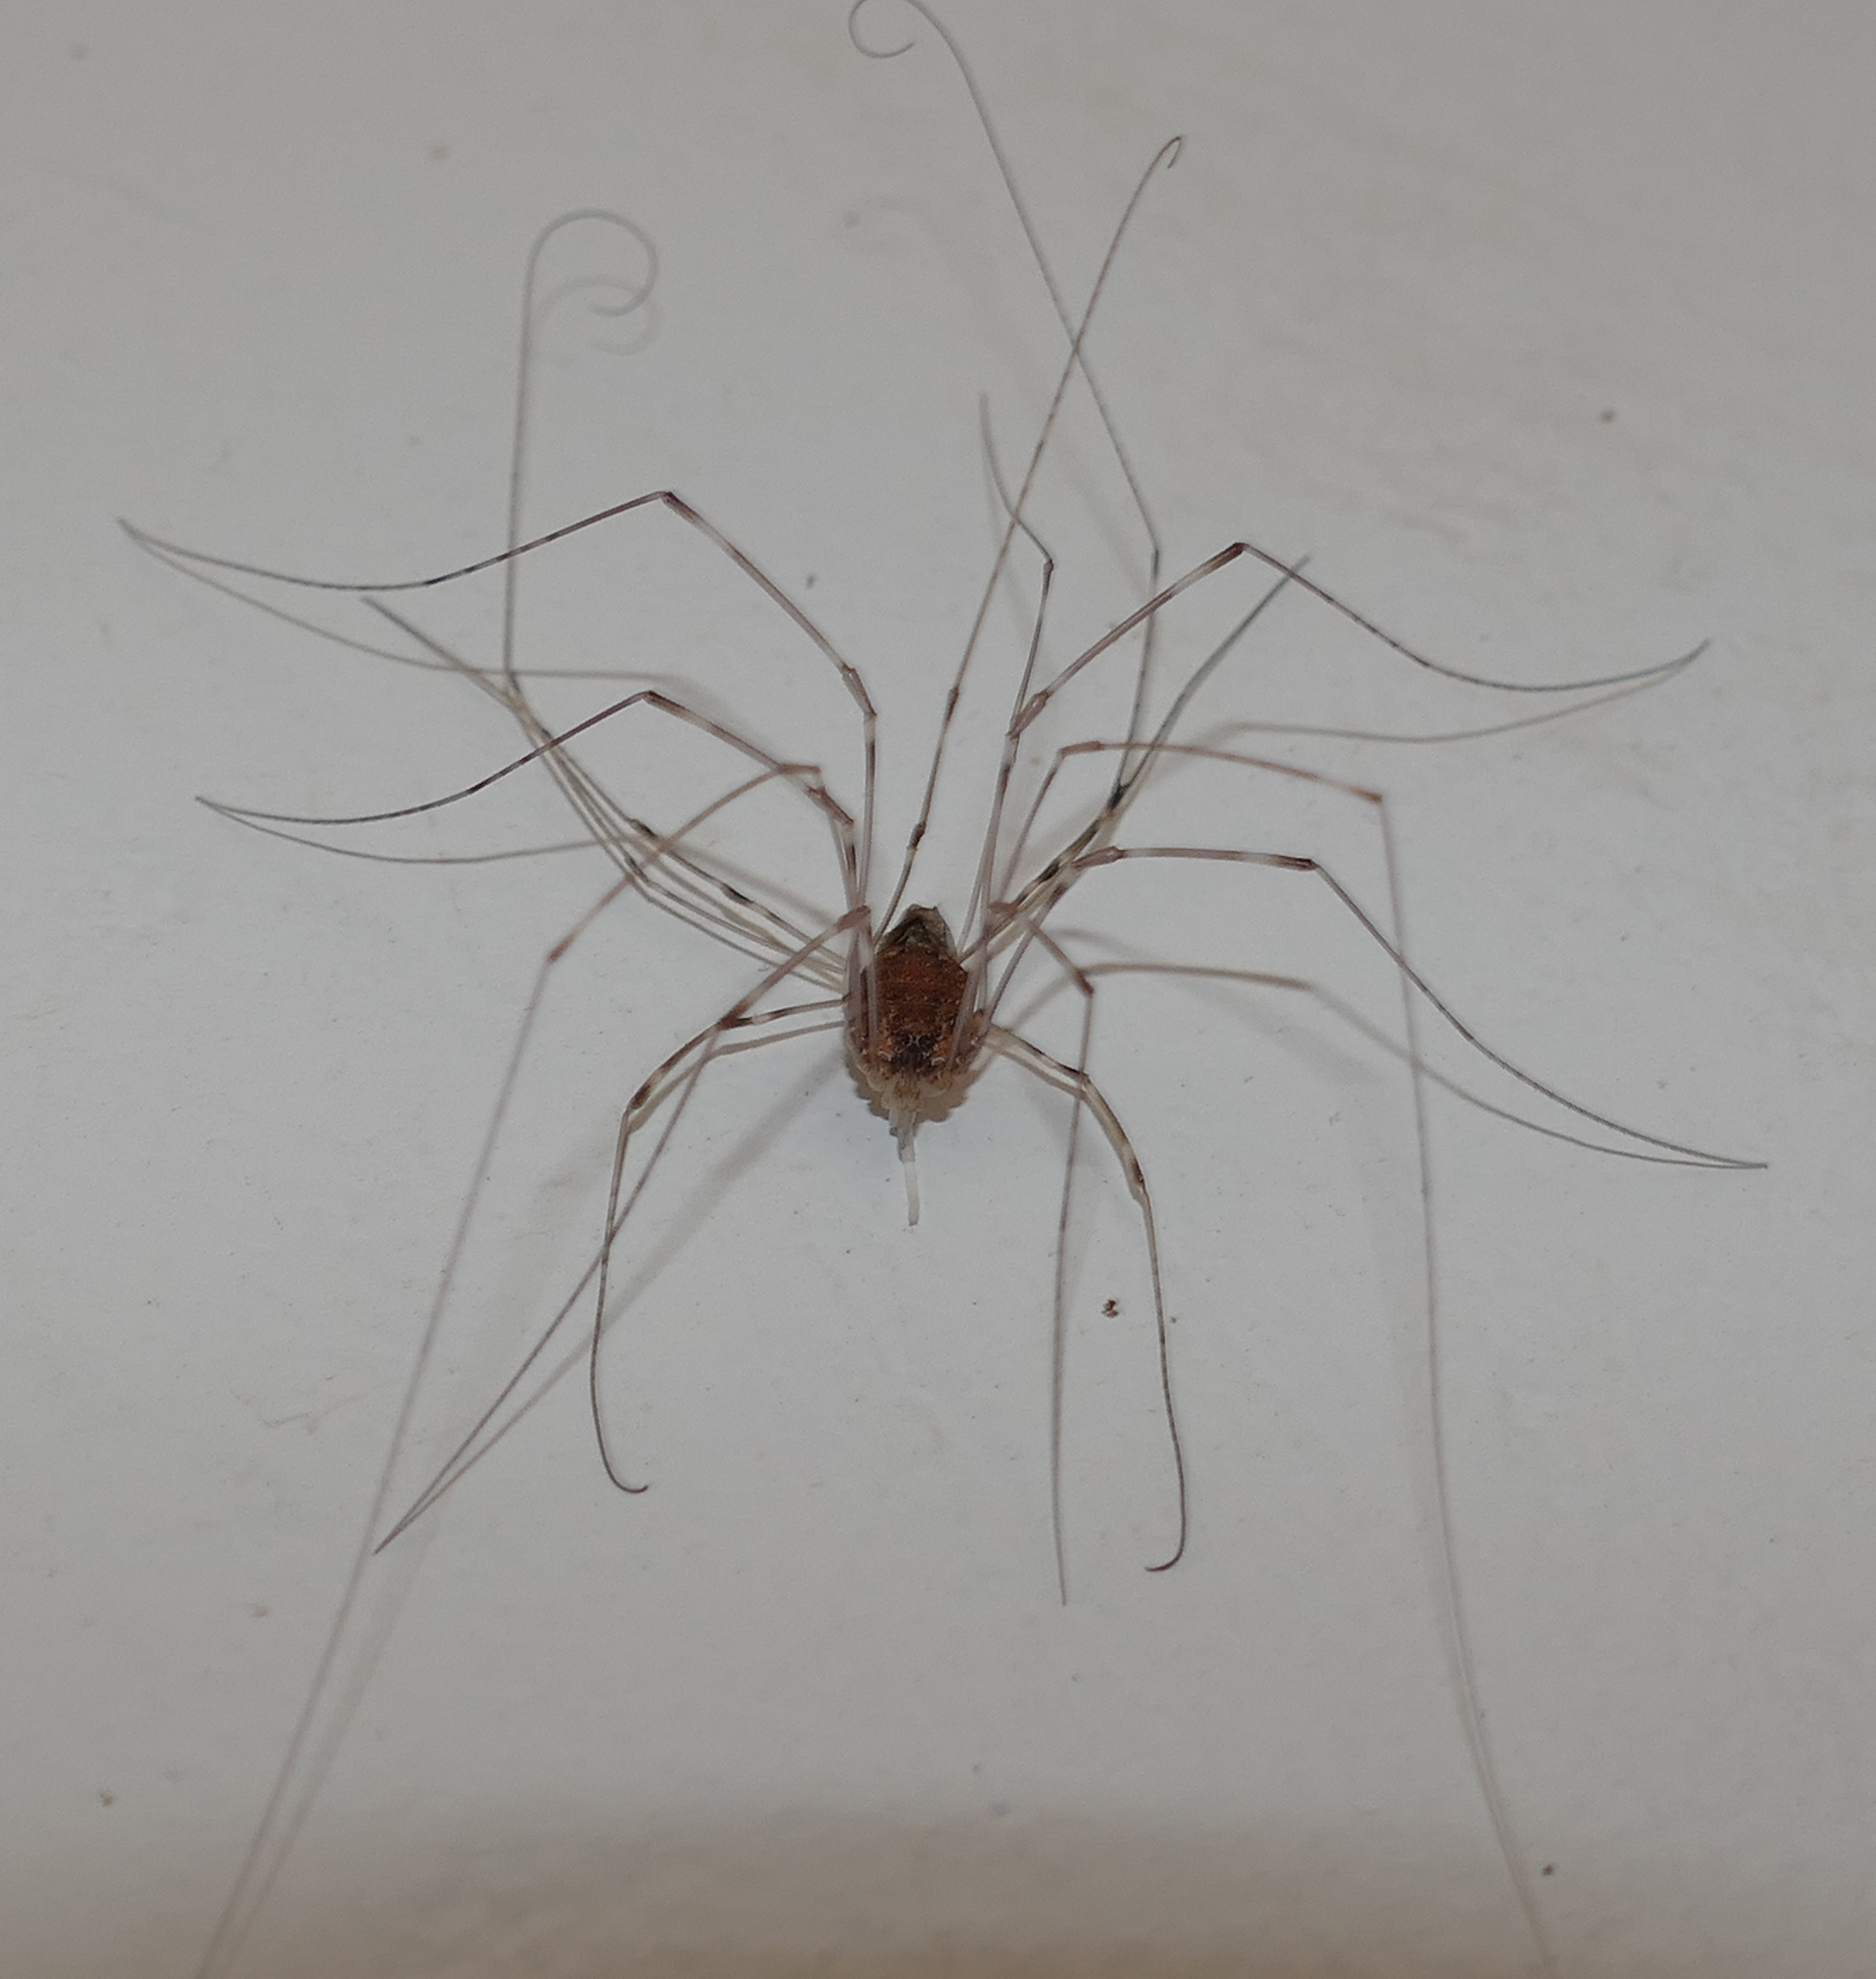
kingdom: Animalia
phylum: Arthropoda
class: Arachnida
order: Opiliones
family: Sclerosomatidae
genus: Leiobunum
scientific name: Leiobunum townsendi
